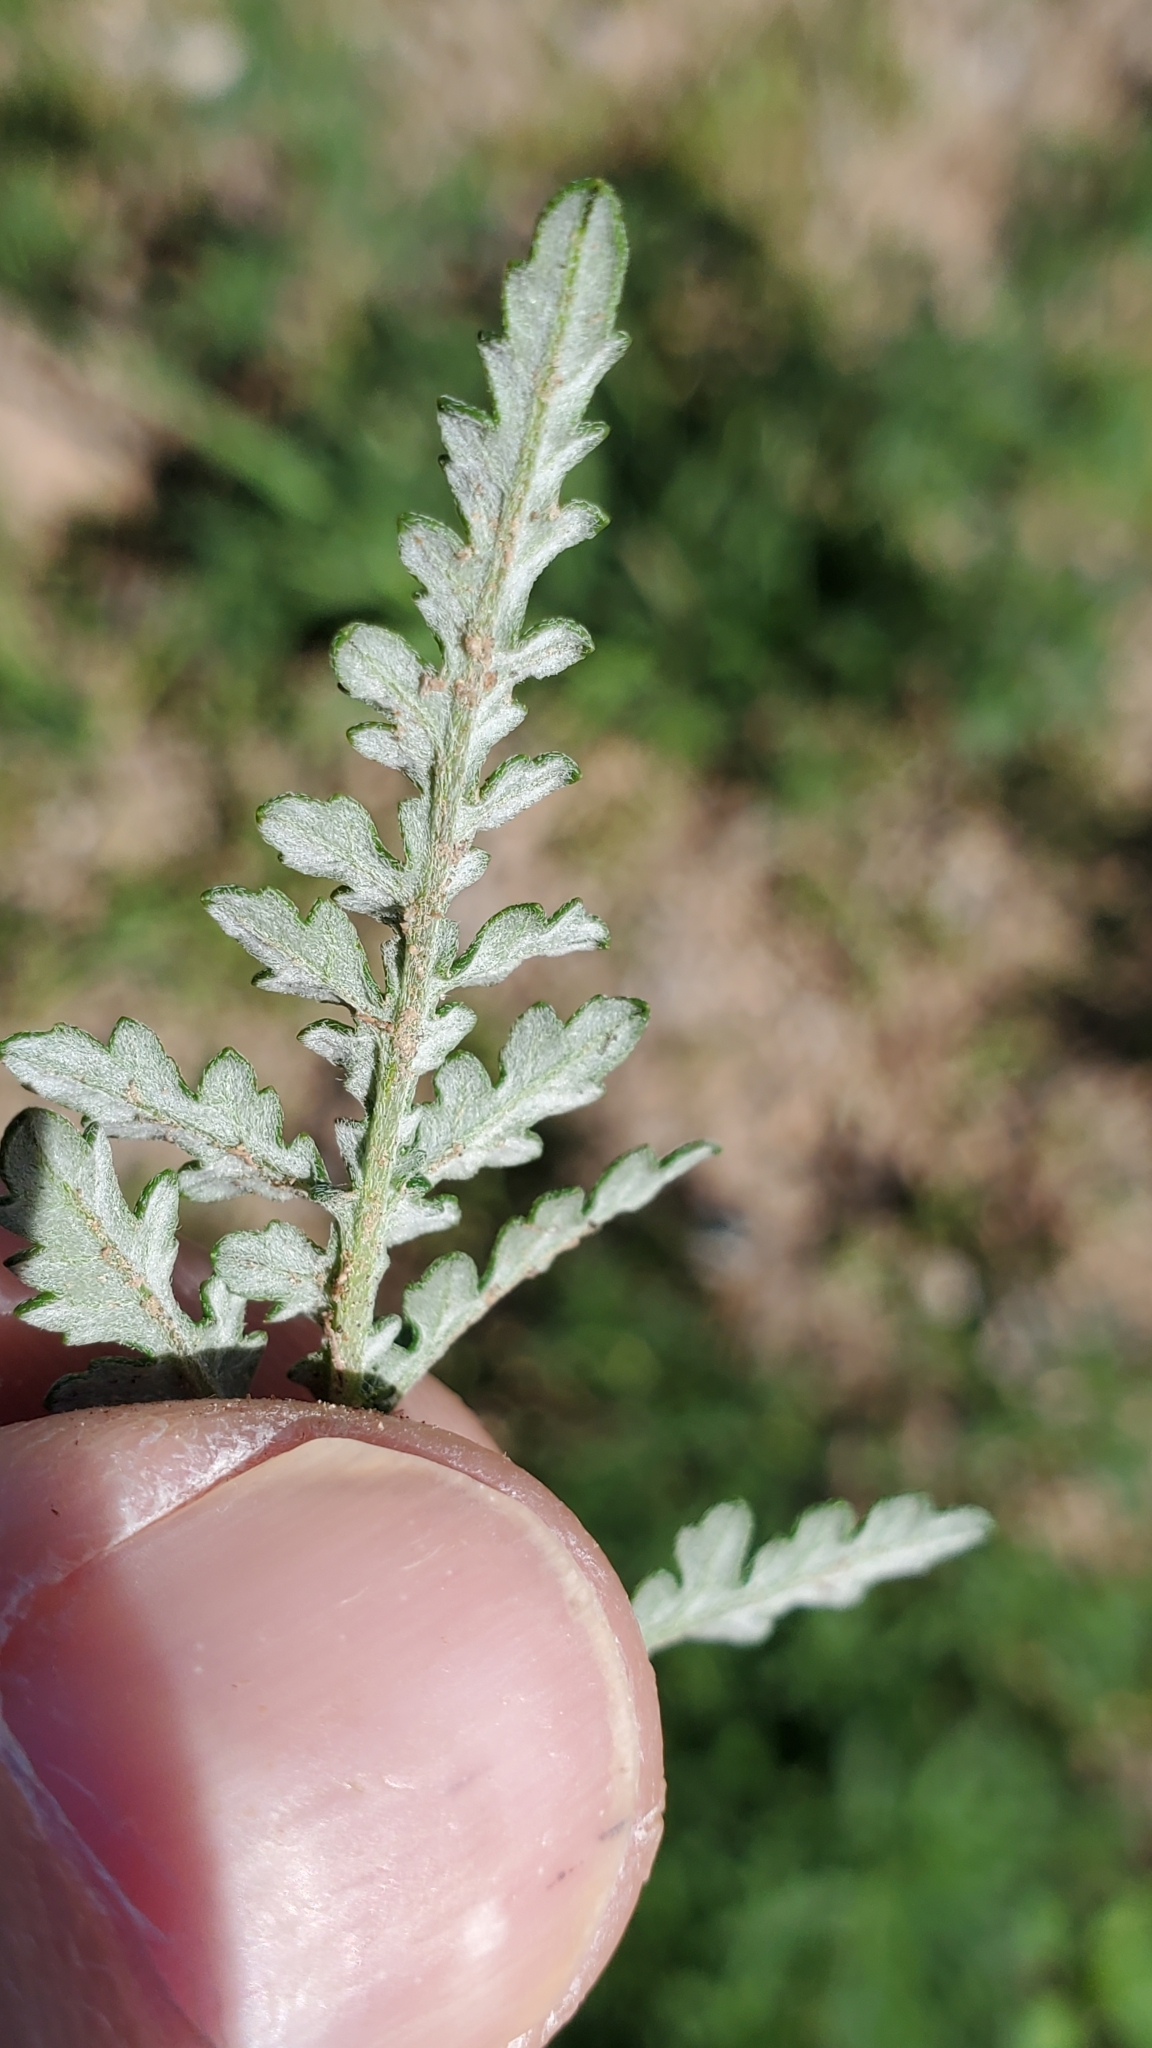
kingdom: Plantae
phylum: Tracheophyta
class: Magnoliopsida
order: Asterales
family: Asteraceae
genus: Ambrosia
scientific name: Ambrosia tomentosa
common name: Silverleaf poverty-weed
